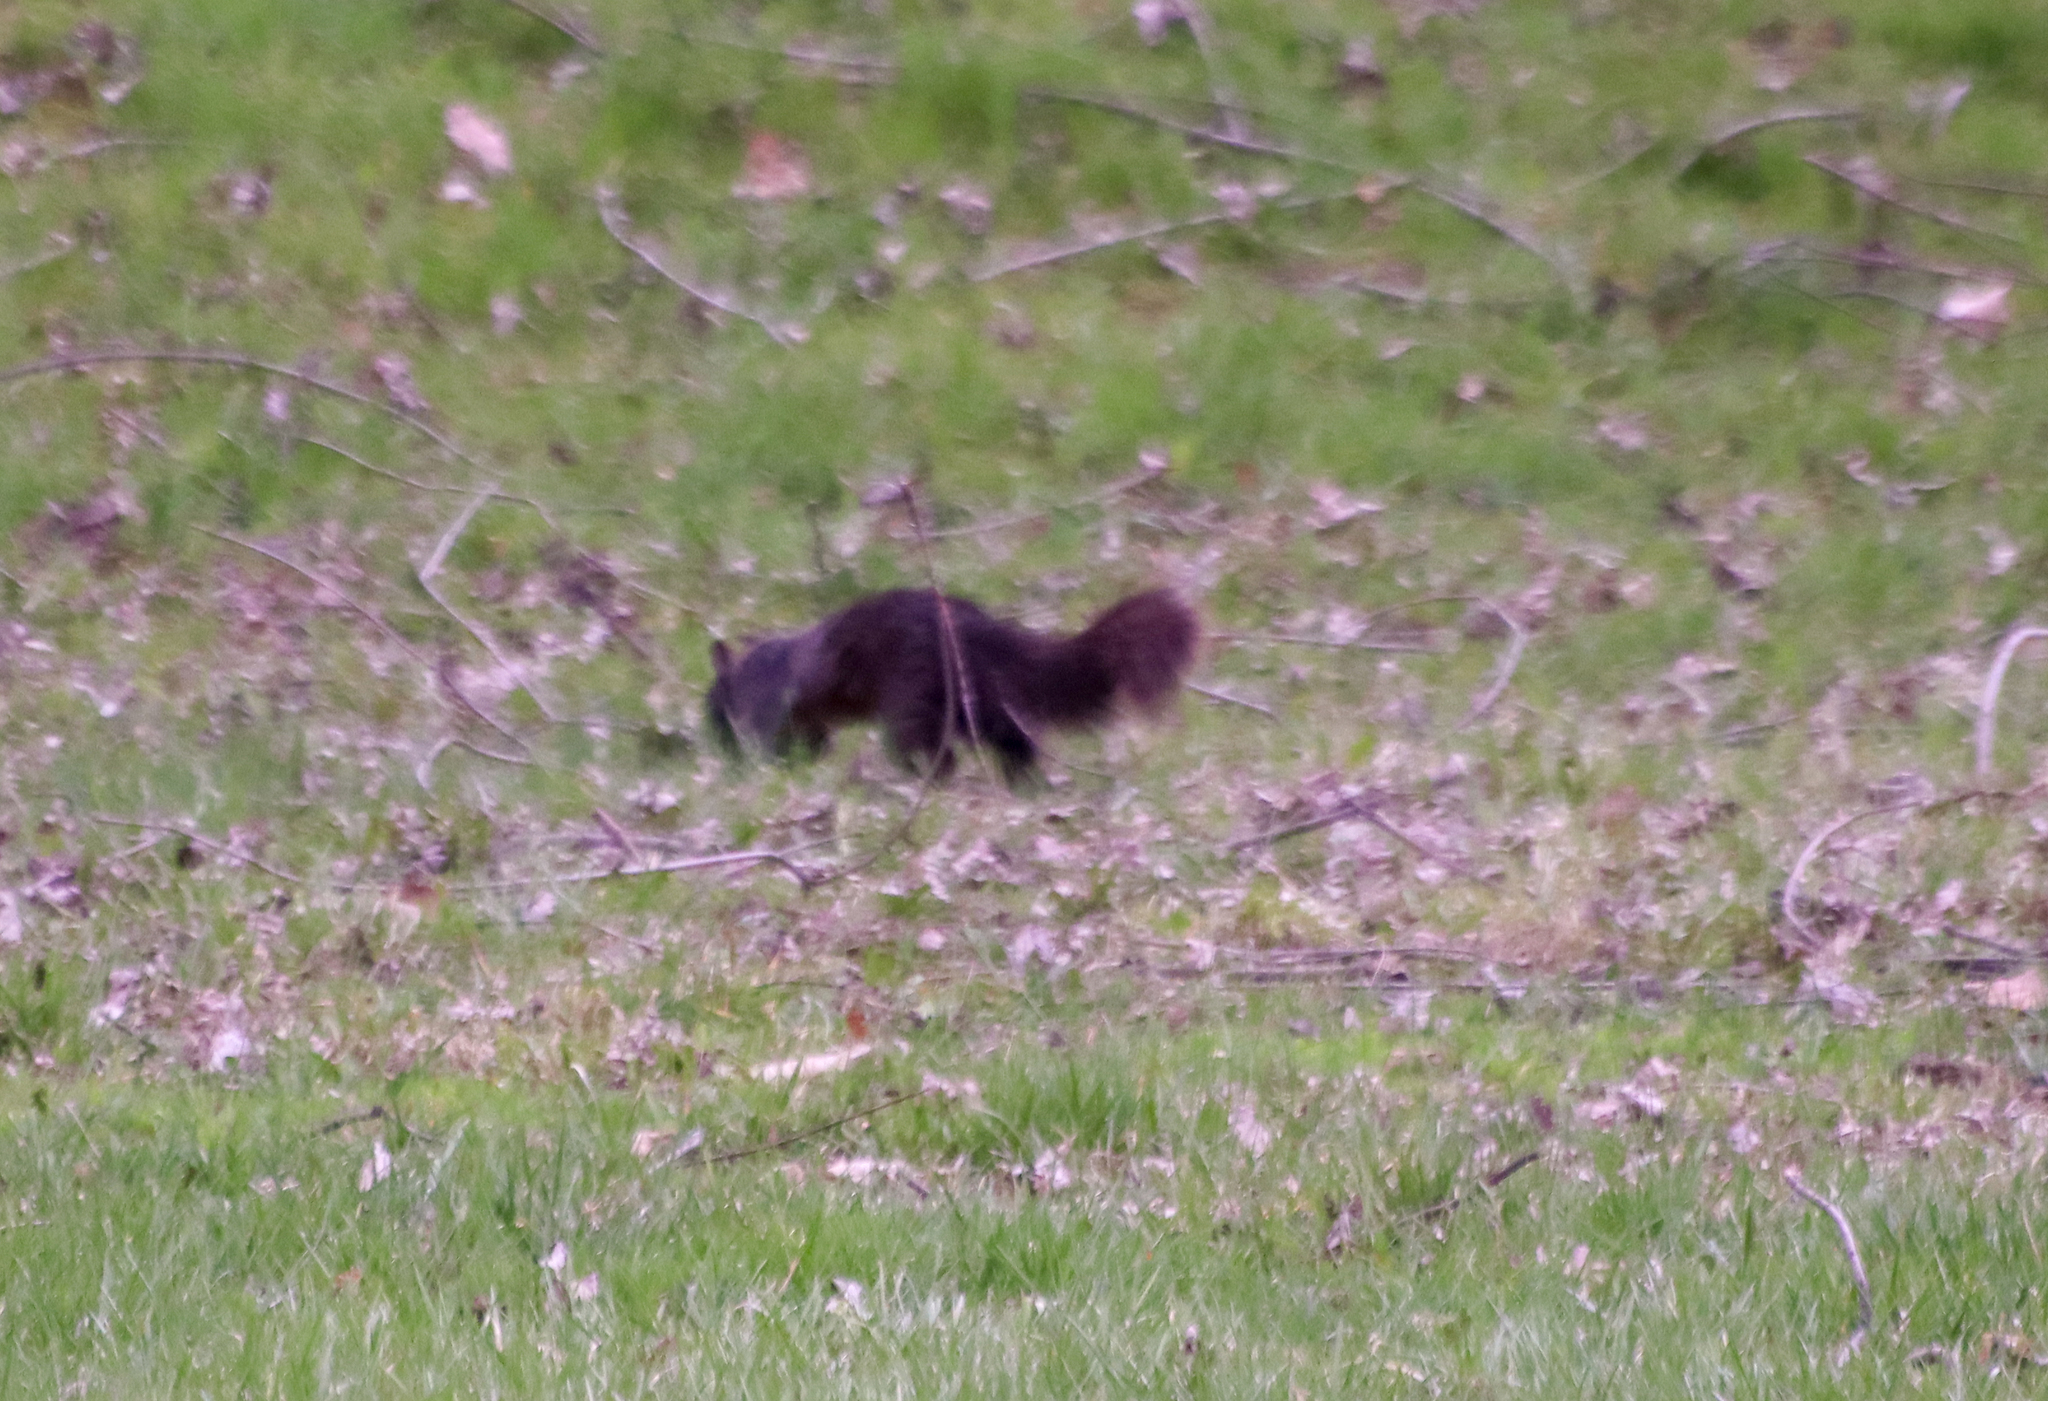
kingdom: Animalia
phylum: Chordata
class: Mammalia
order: Rodentia
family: Sciuridae
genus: Sciurus
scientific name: Sciurus carolinensis
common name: Eastern gray squirrel
